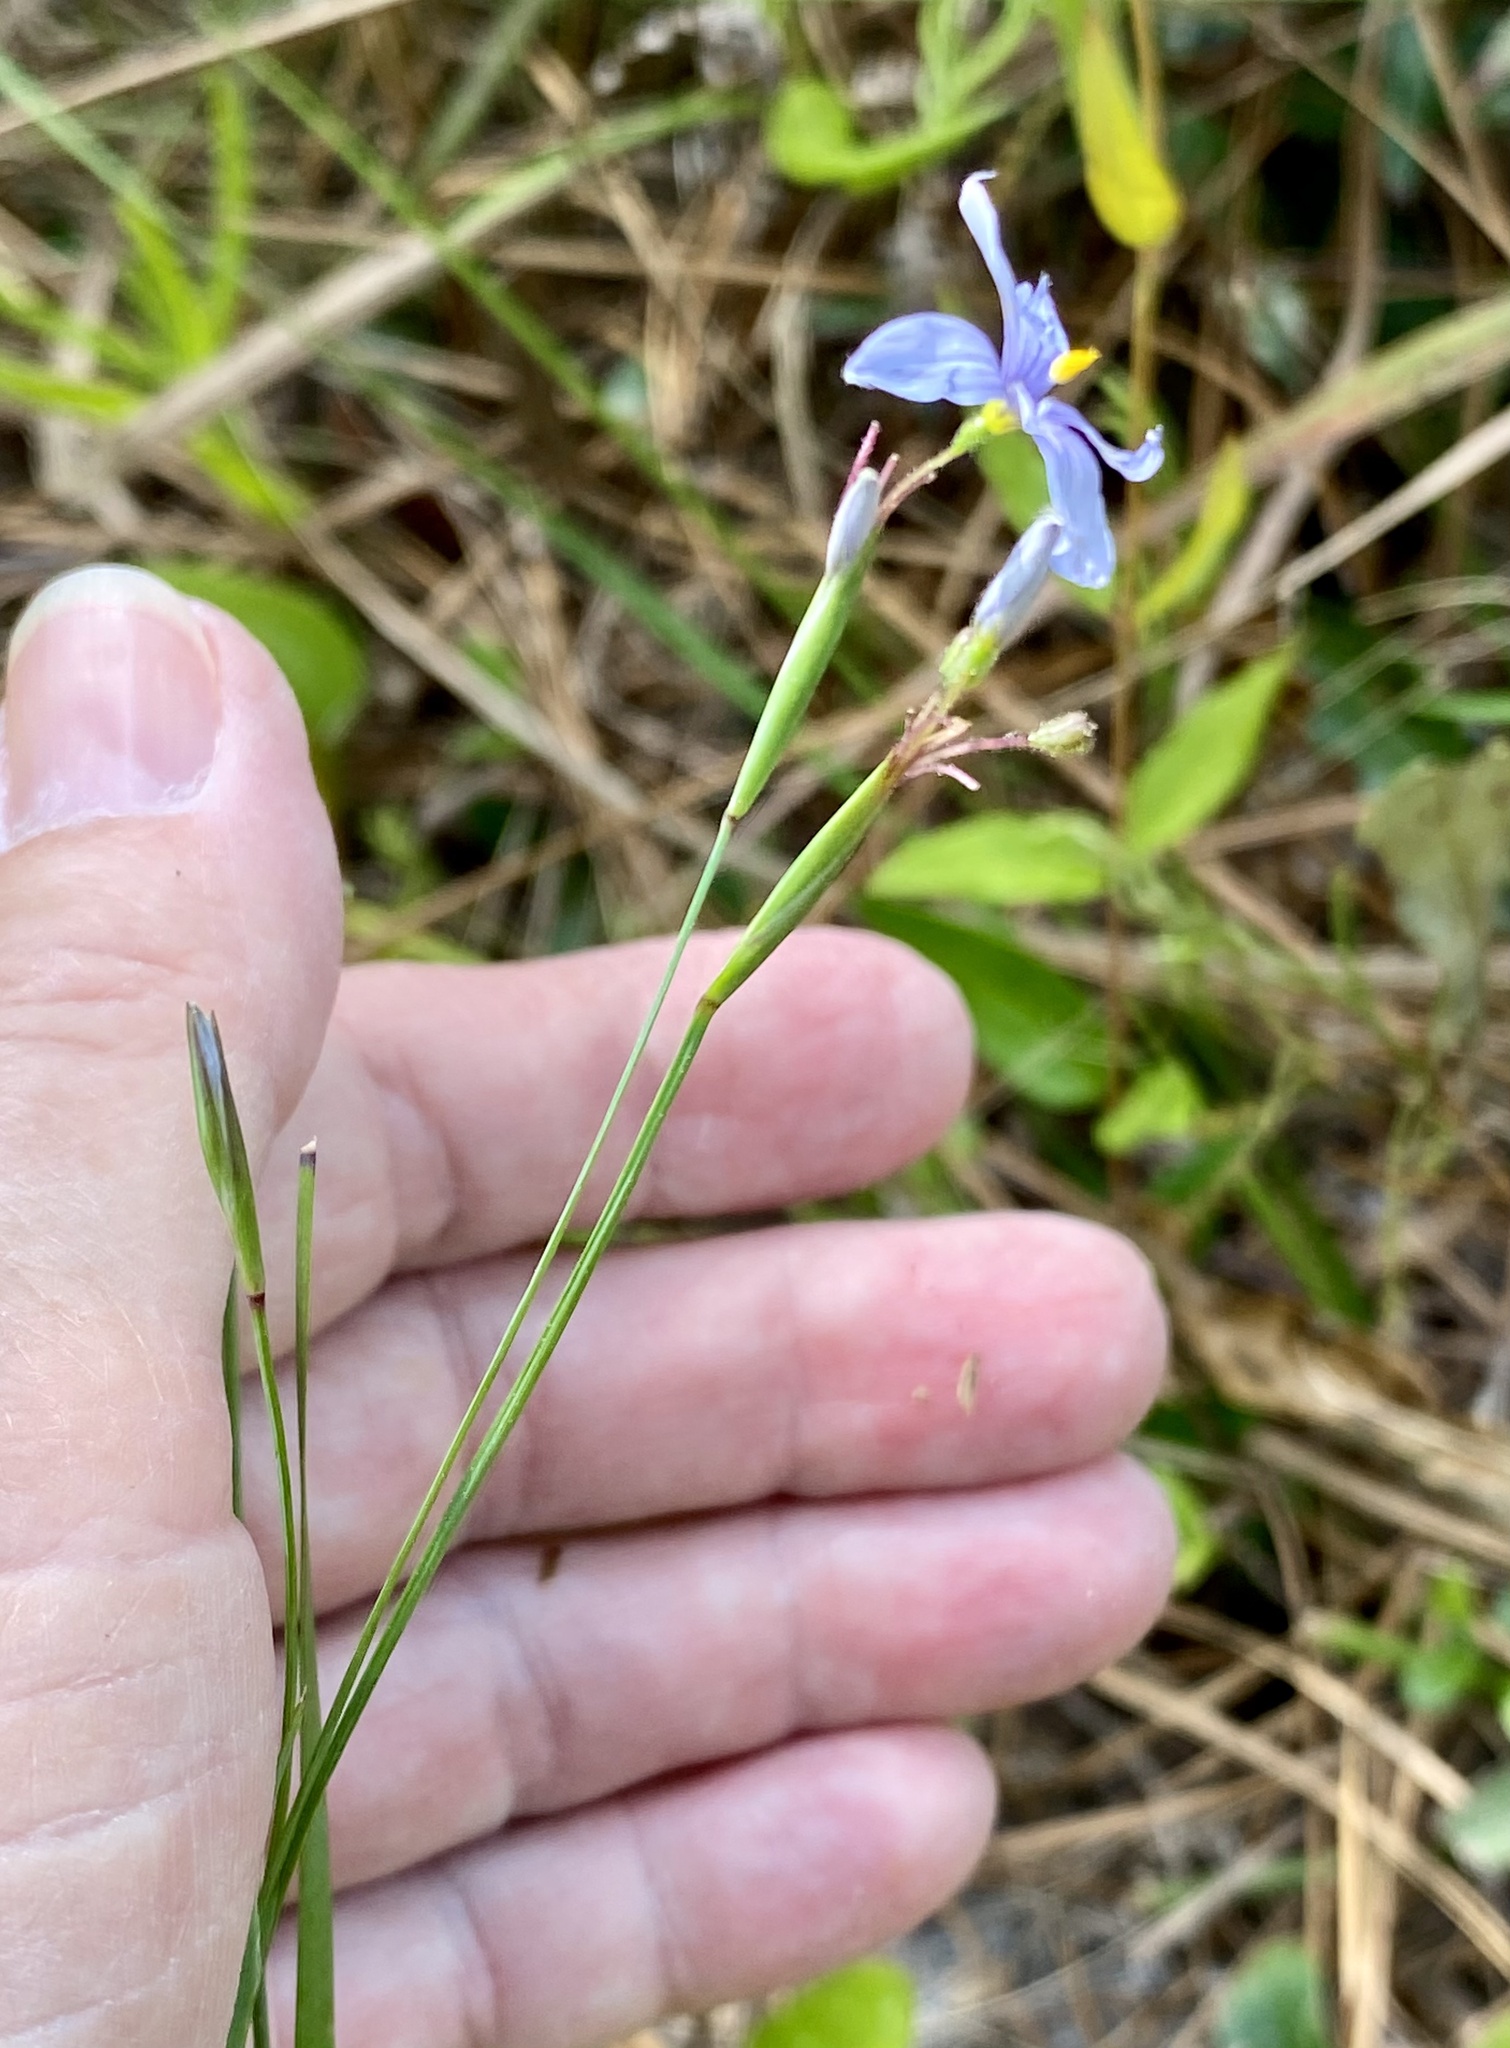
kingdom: Plantae
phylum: Tracheophyta
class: Liliopsida
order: Asparagales
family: Iridaceae
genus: Sisyrinchium
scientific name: Sisyrinchium angustifolium
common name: Narrow-leaf blue-eyed-grass
